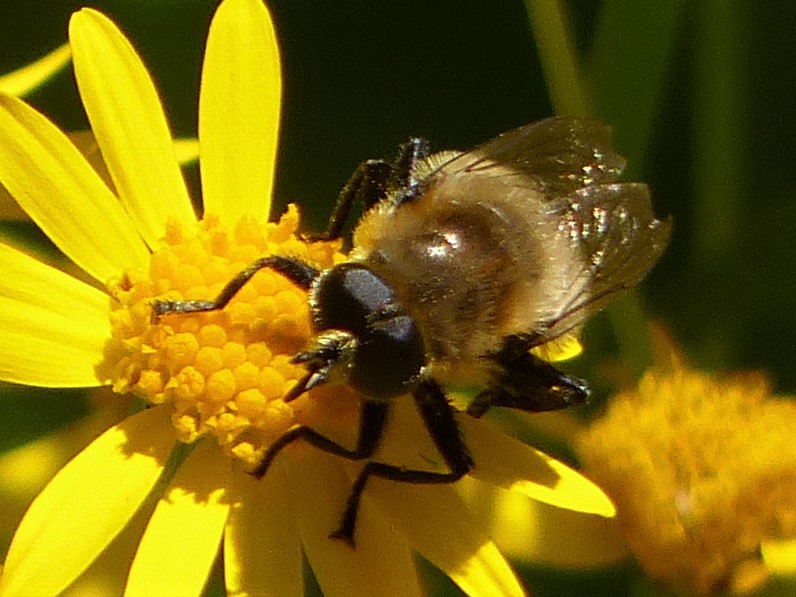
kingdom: Animalia
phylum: Arthropoda
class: Insecta
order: Diptera
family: Syrphidae
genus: Merodon
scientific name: Merodon equestris
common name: Greater bulb-fly
